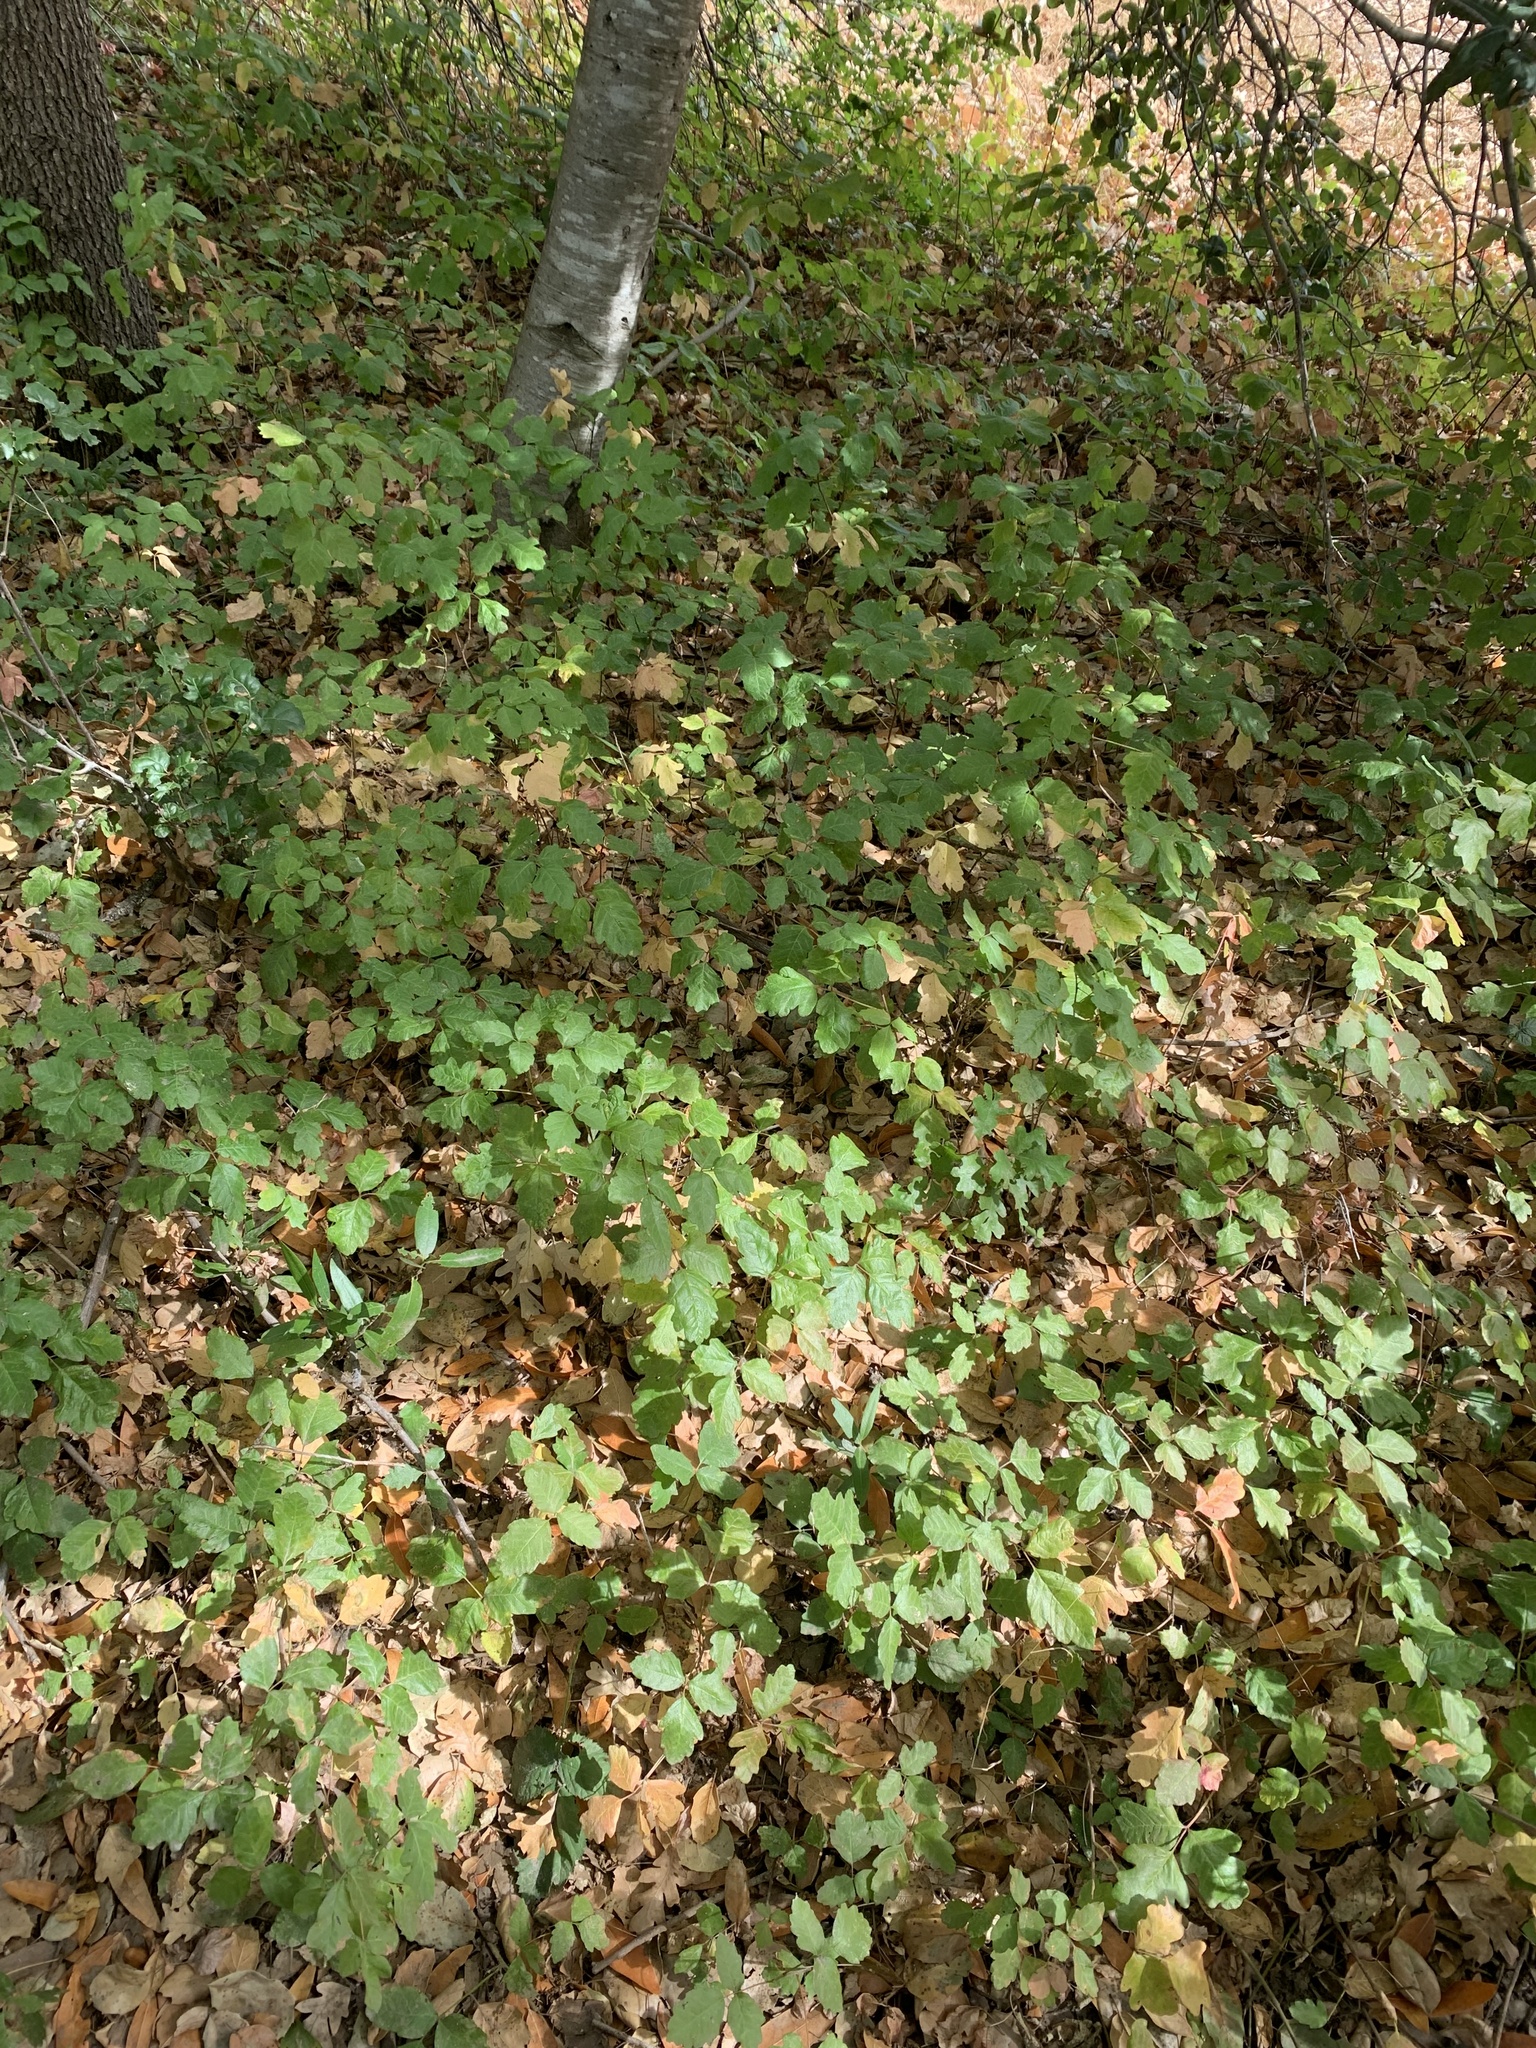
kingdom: Plantae
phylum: Tracheophyta
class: Magnoliopsida
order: Sapindales
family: Anacardiaceae
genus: Toxicodendron
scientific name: Toxicodendron diversilobum
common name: Pacific poison-oak
